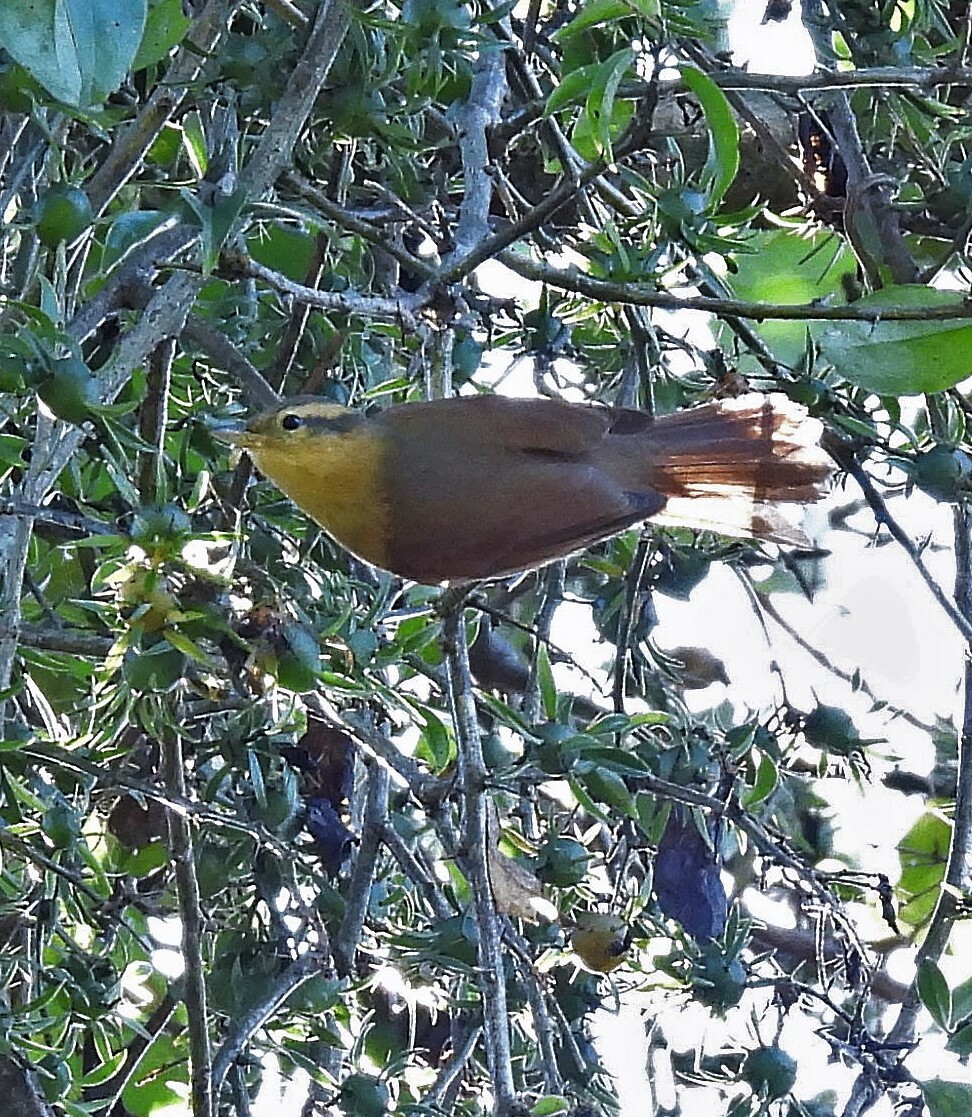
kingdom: Animalia
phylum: Chordata
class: Aves
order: Passeriformes
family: Furnariidae
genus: Philydor
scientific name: Philydor lichtensteini
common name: Ochre-breasted foliage-gleaner
